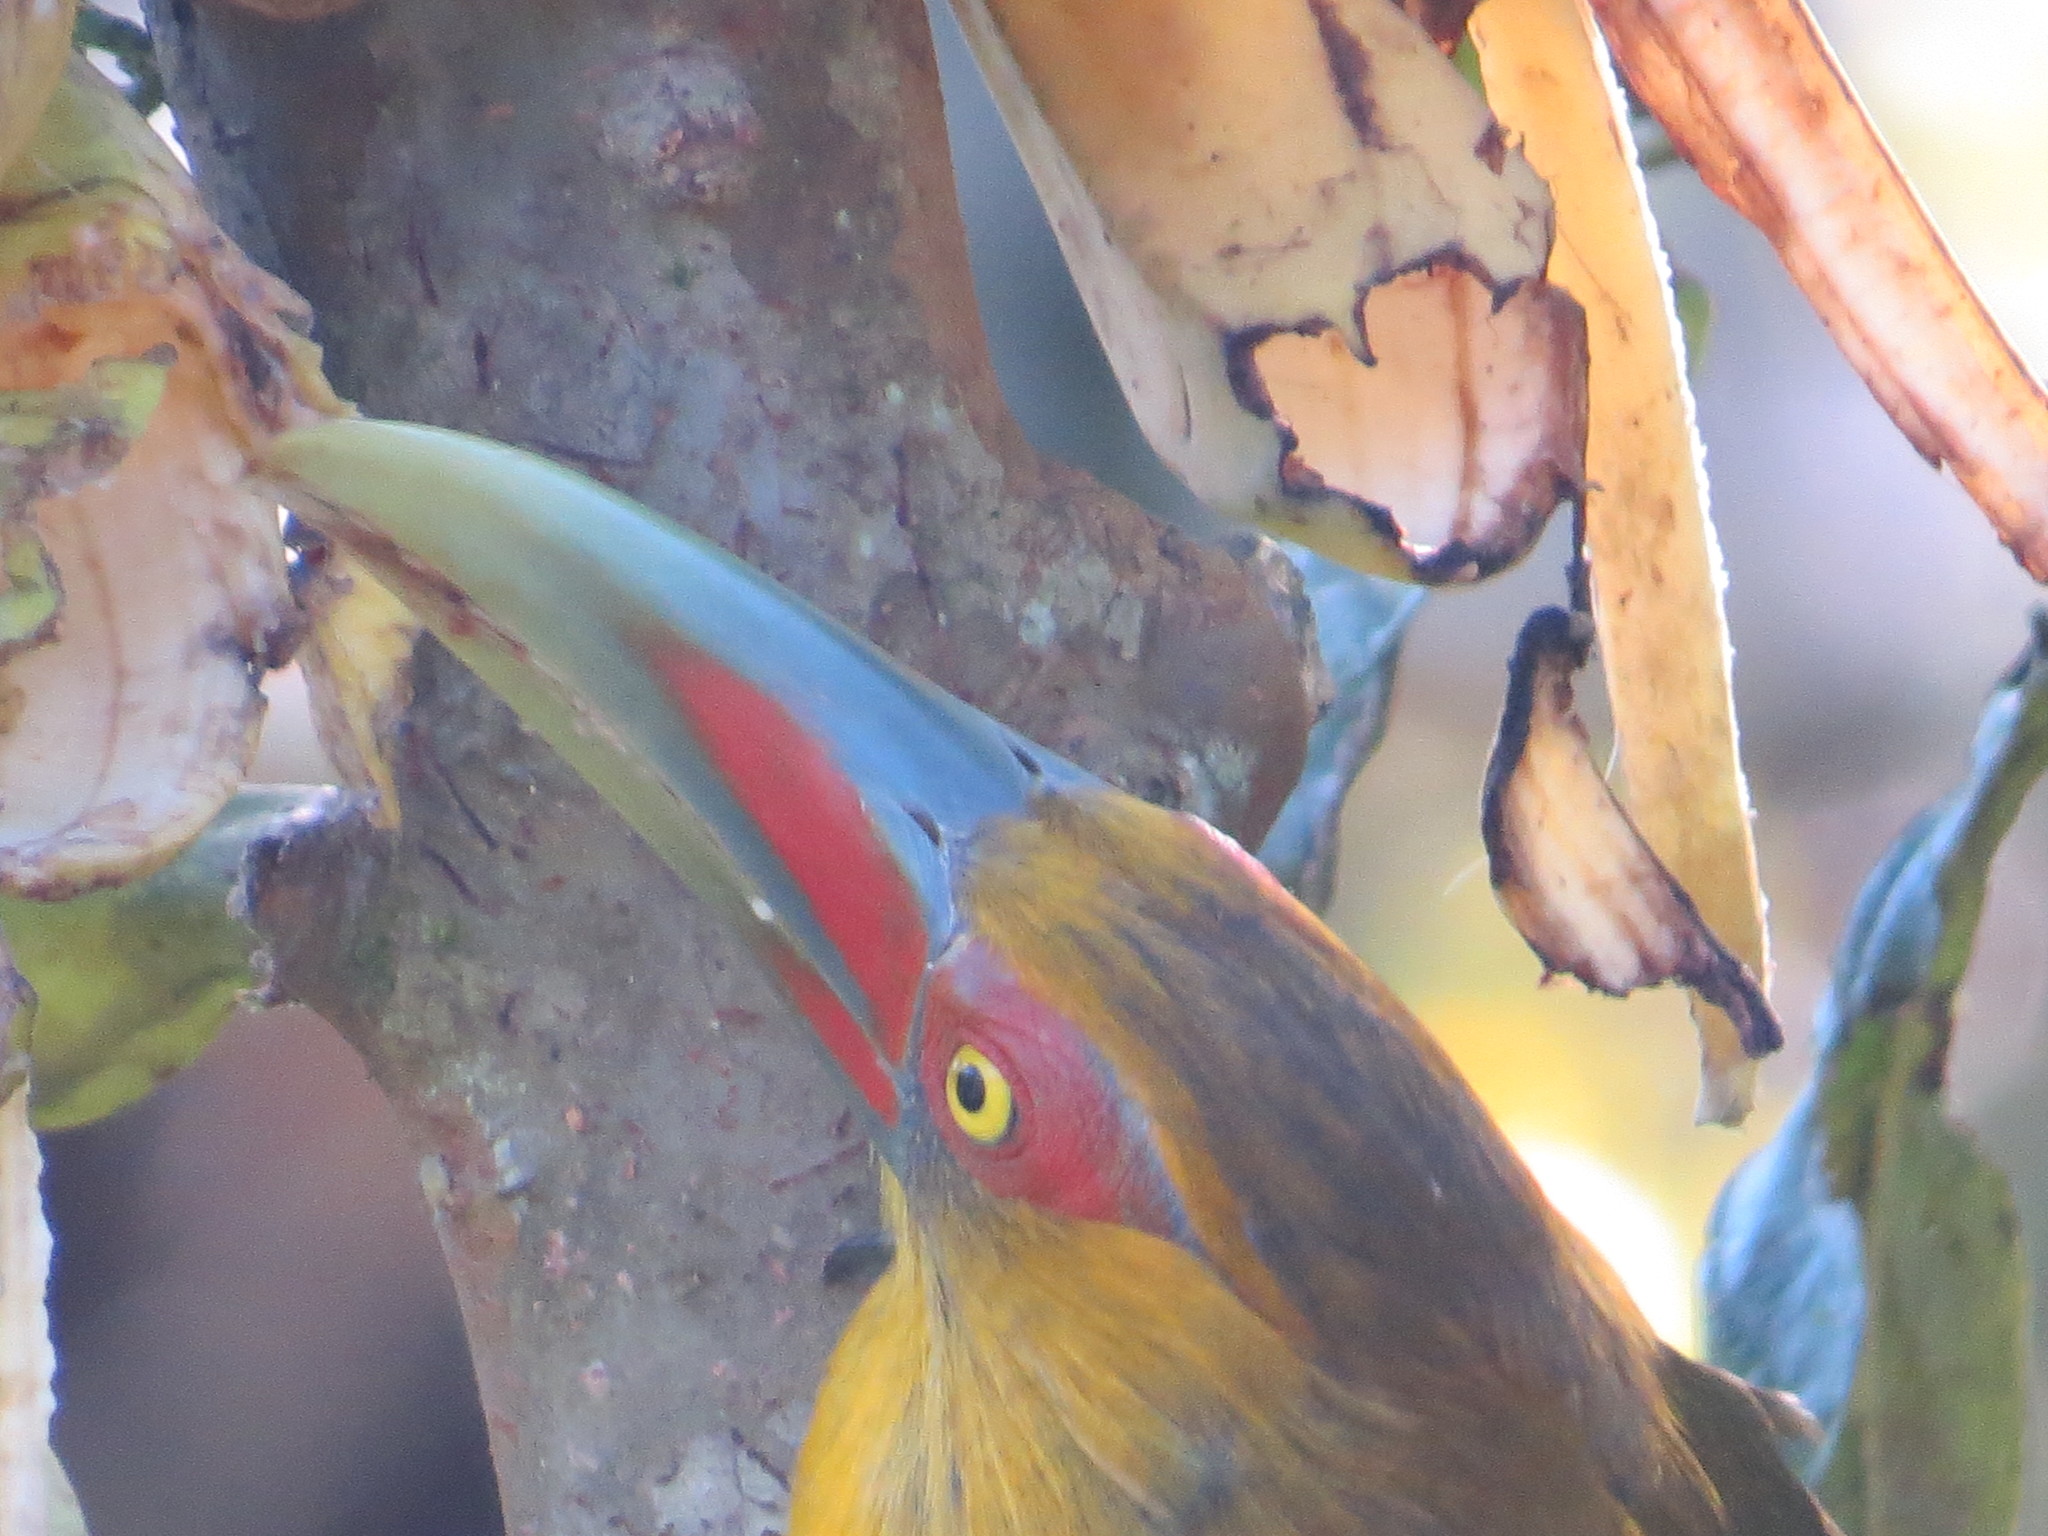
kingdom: Animalia
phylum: Chordata
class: Aves
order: Piciformes
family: Ramphastidae
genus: Pteroglossus
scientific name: Pteroglossus bailloni
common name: Saffron toucanet
